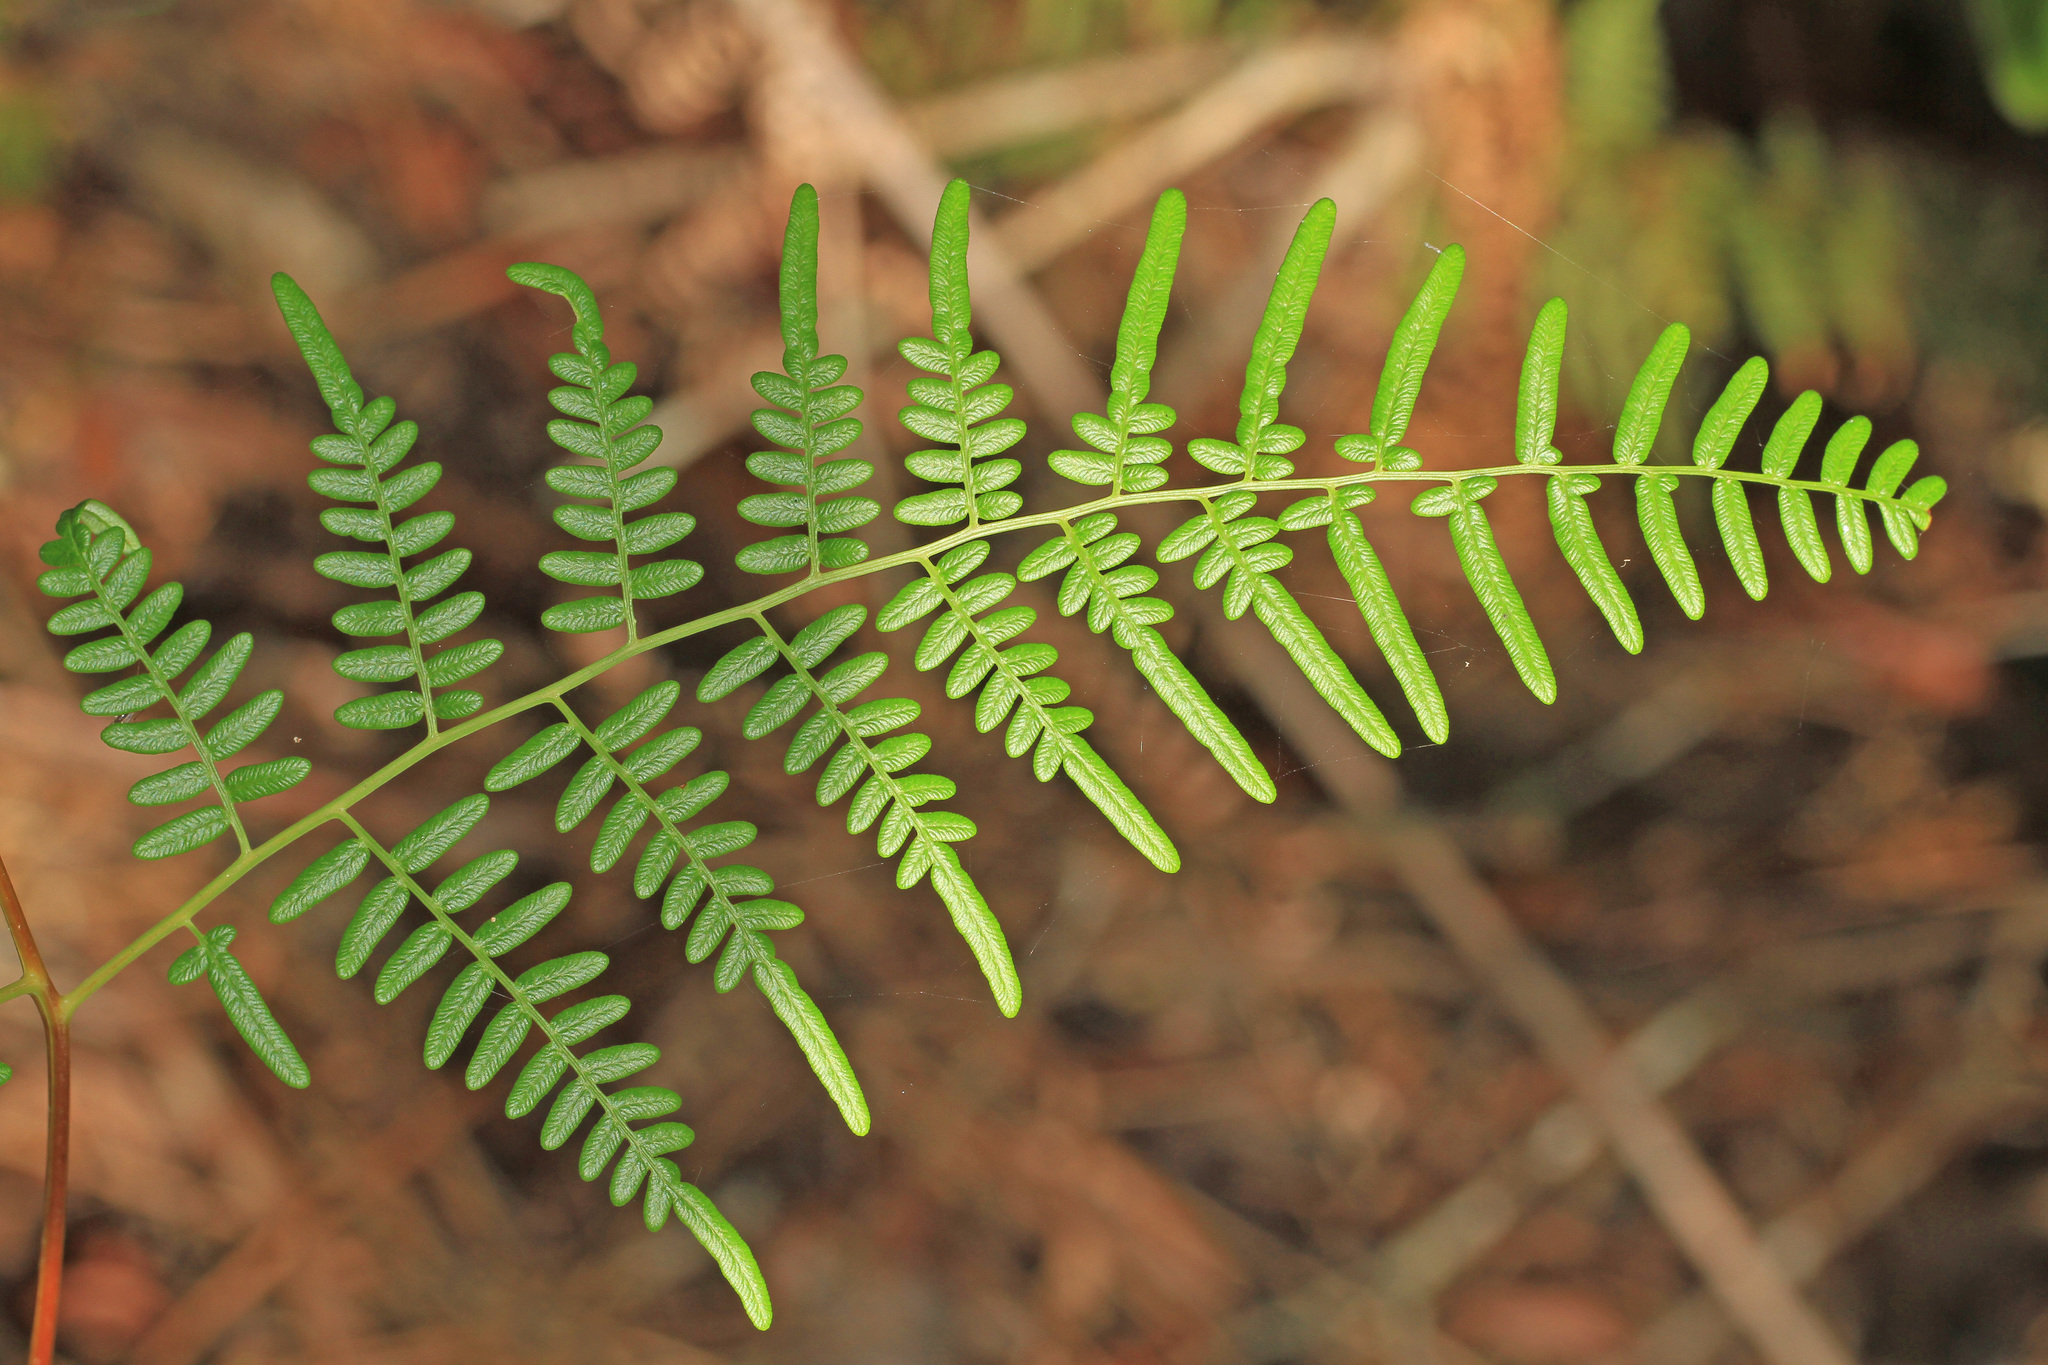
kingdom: Plantae
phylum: Tracheophyta
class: Polypodiopsida
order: Polypodiales
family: Dennstaedtiaceae
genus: Pteridium
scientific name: Pteridium aquilinum
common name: Bracken
